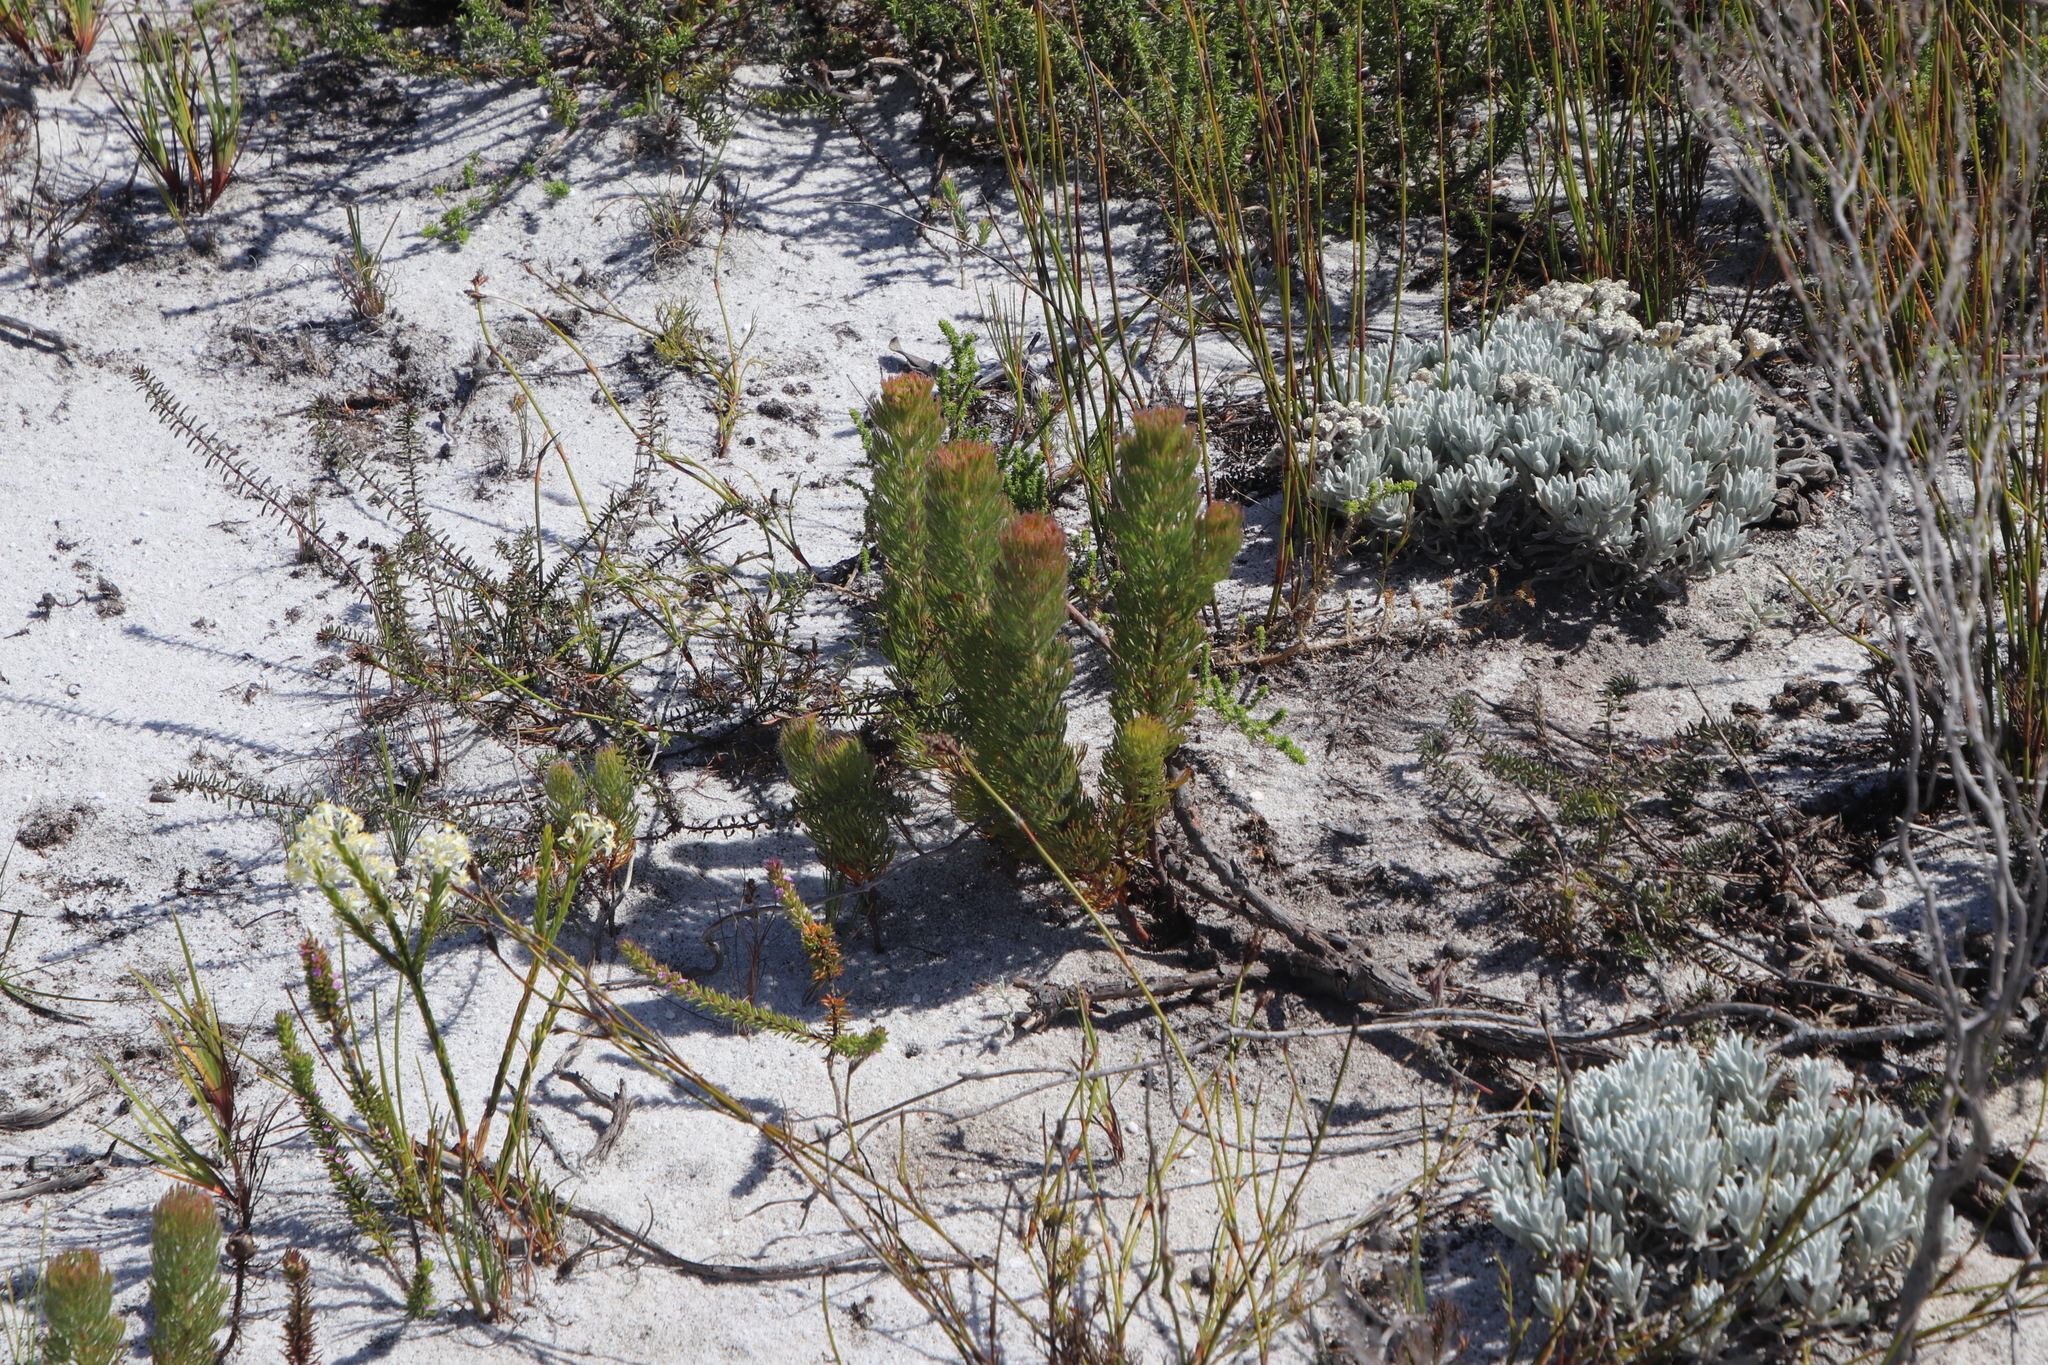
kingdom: Plantae
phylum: Tracheophyta
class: Magnoliopsida
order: Proteales
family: Proteaceae
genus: Serruria
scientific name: Serruria villosa
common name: Golden spiderhead
